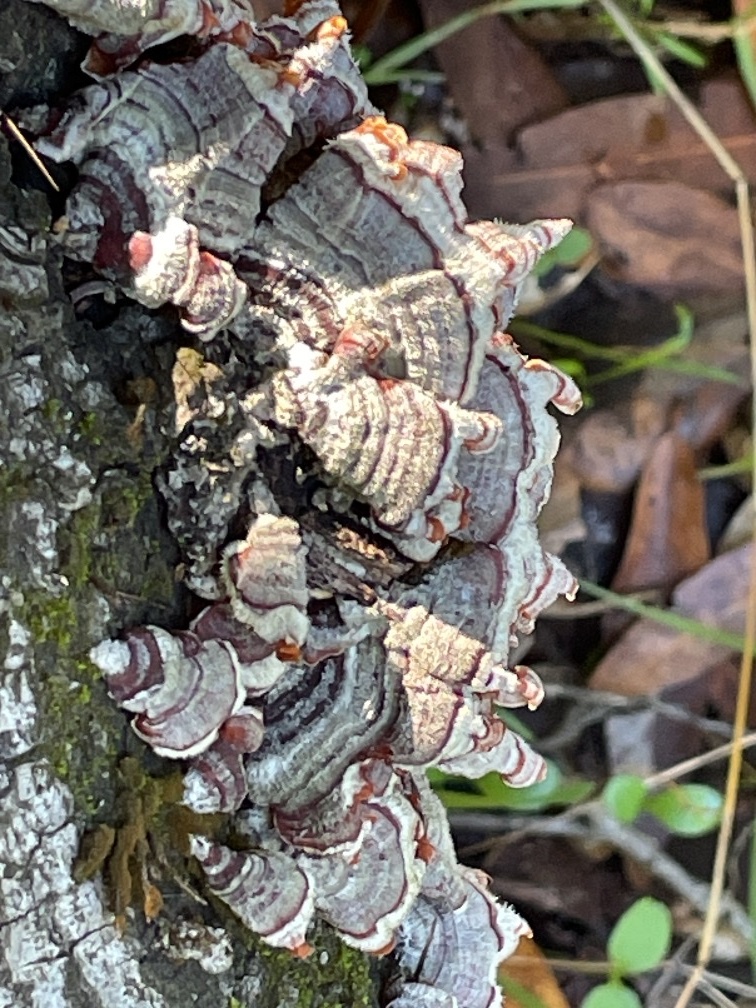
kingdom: Fungi
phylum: Basidiomycota
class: Agaricomycetes
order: Russulales
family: Stereaceae
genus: Stereum
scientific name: Stereum hirsutum
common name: Hairy curtain crust
